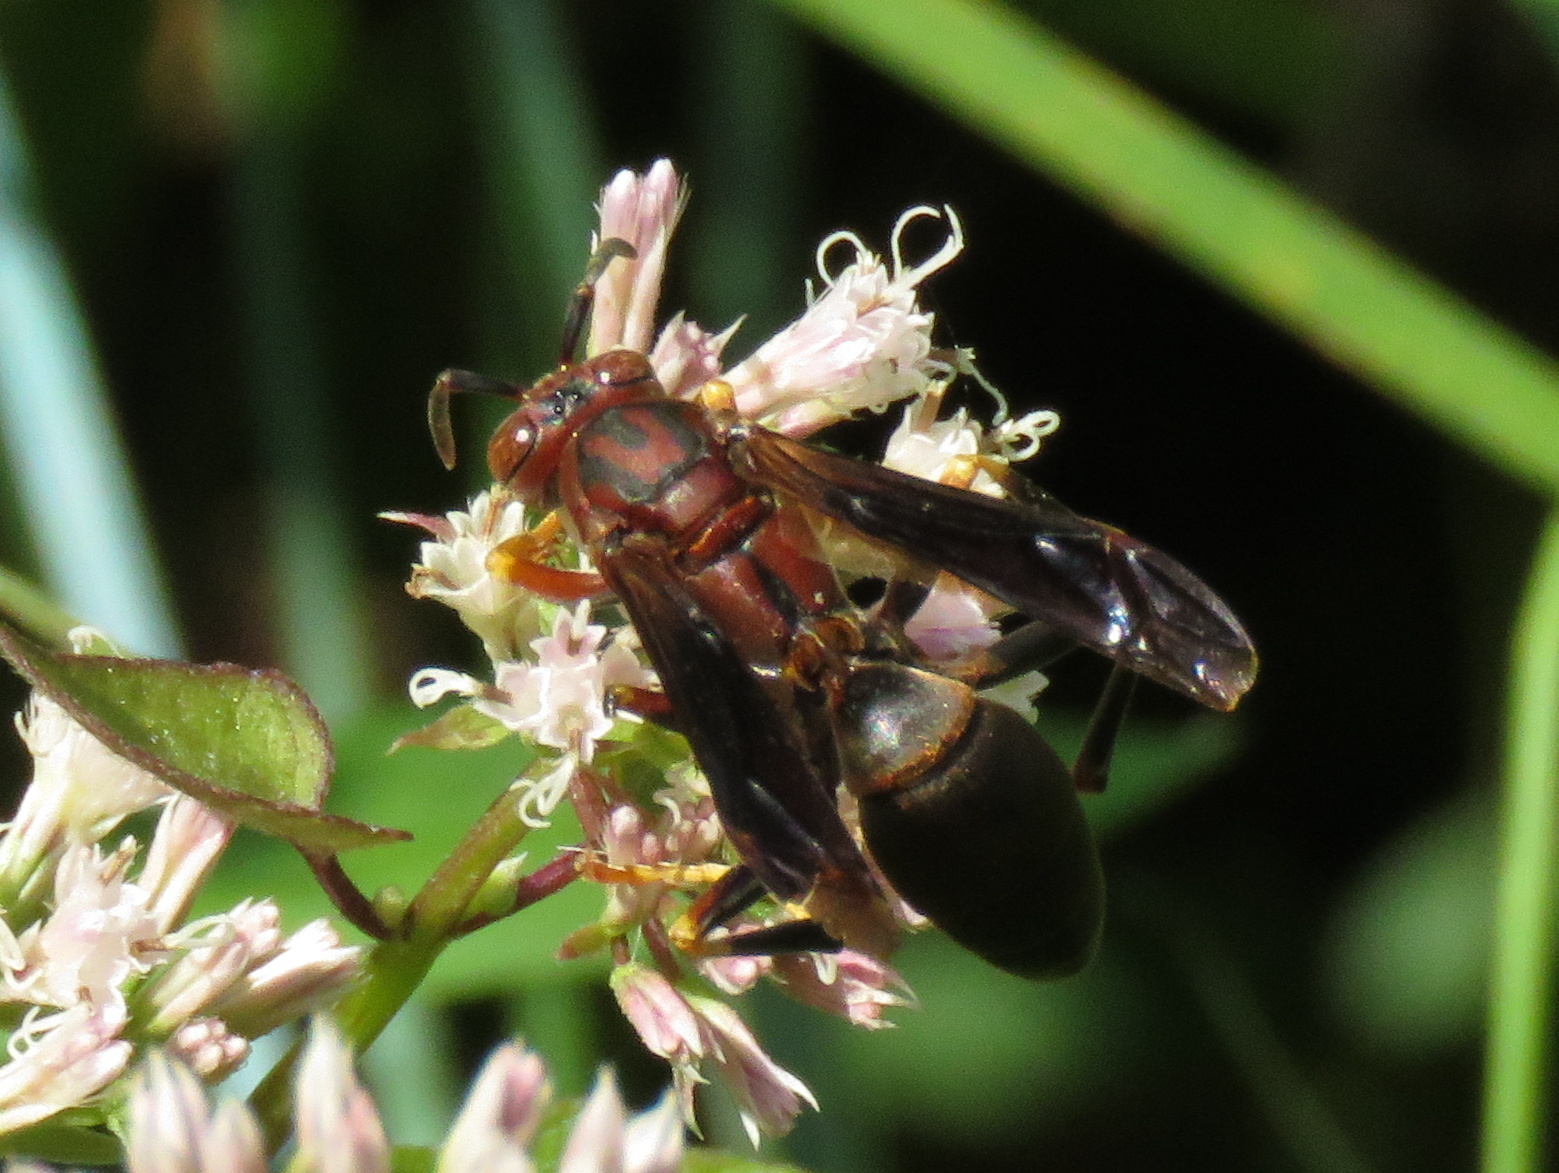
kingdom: Animalia
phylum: Arthropoda
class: Insecta
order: Hymenoptera
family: Eumenidae
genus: Polistes
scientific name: Polistes metricus
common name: Metric paper wasp
